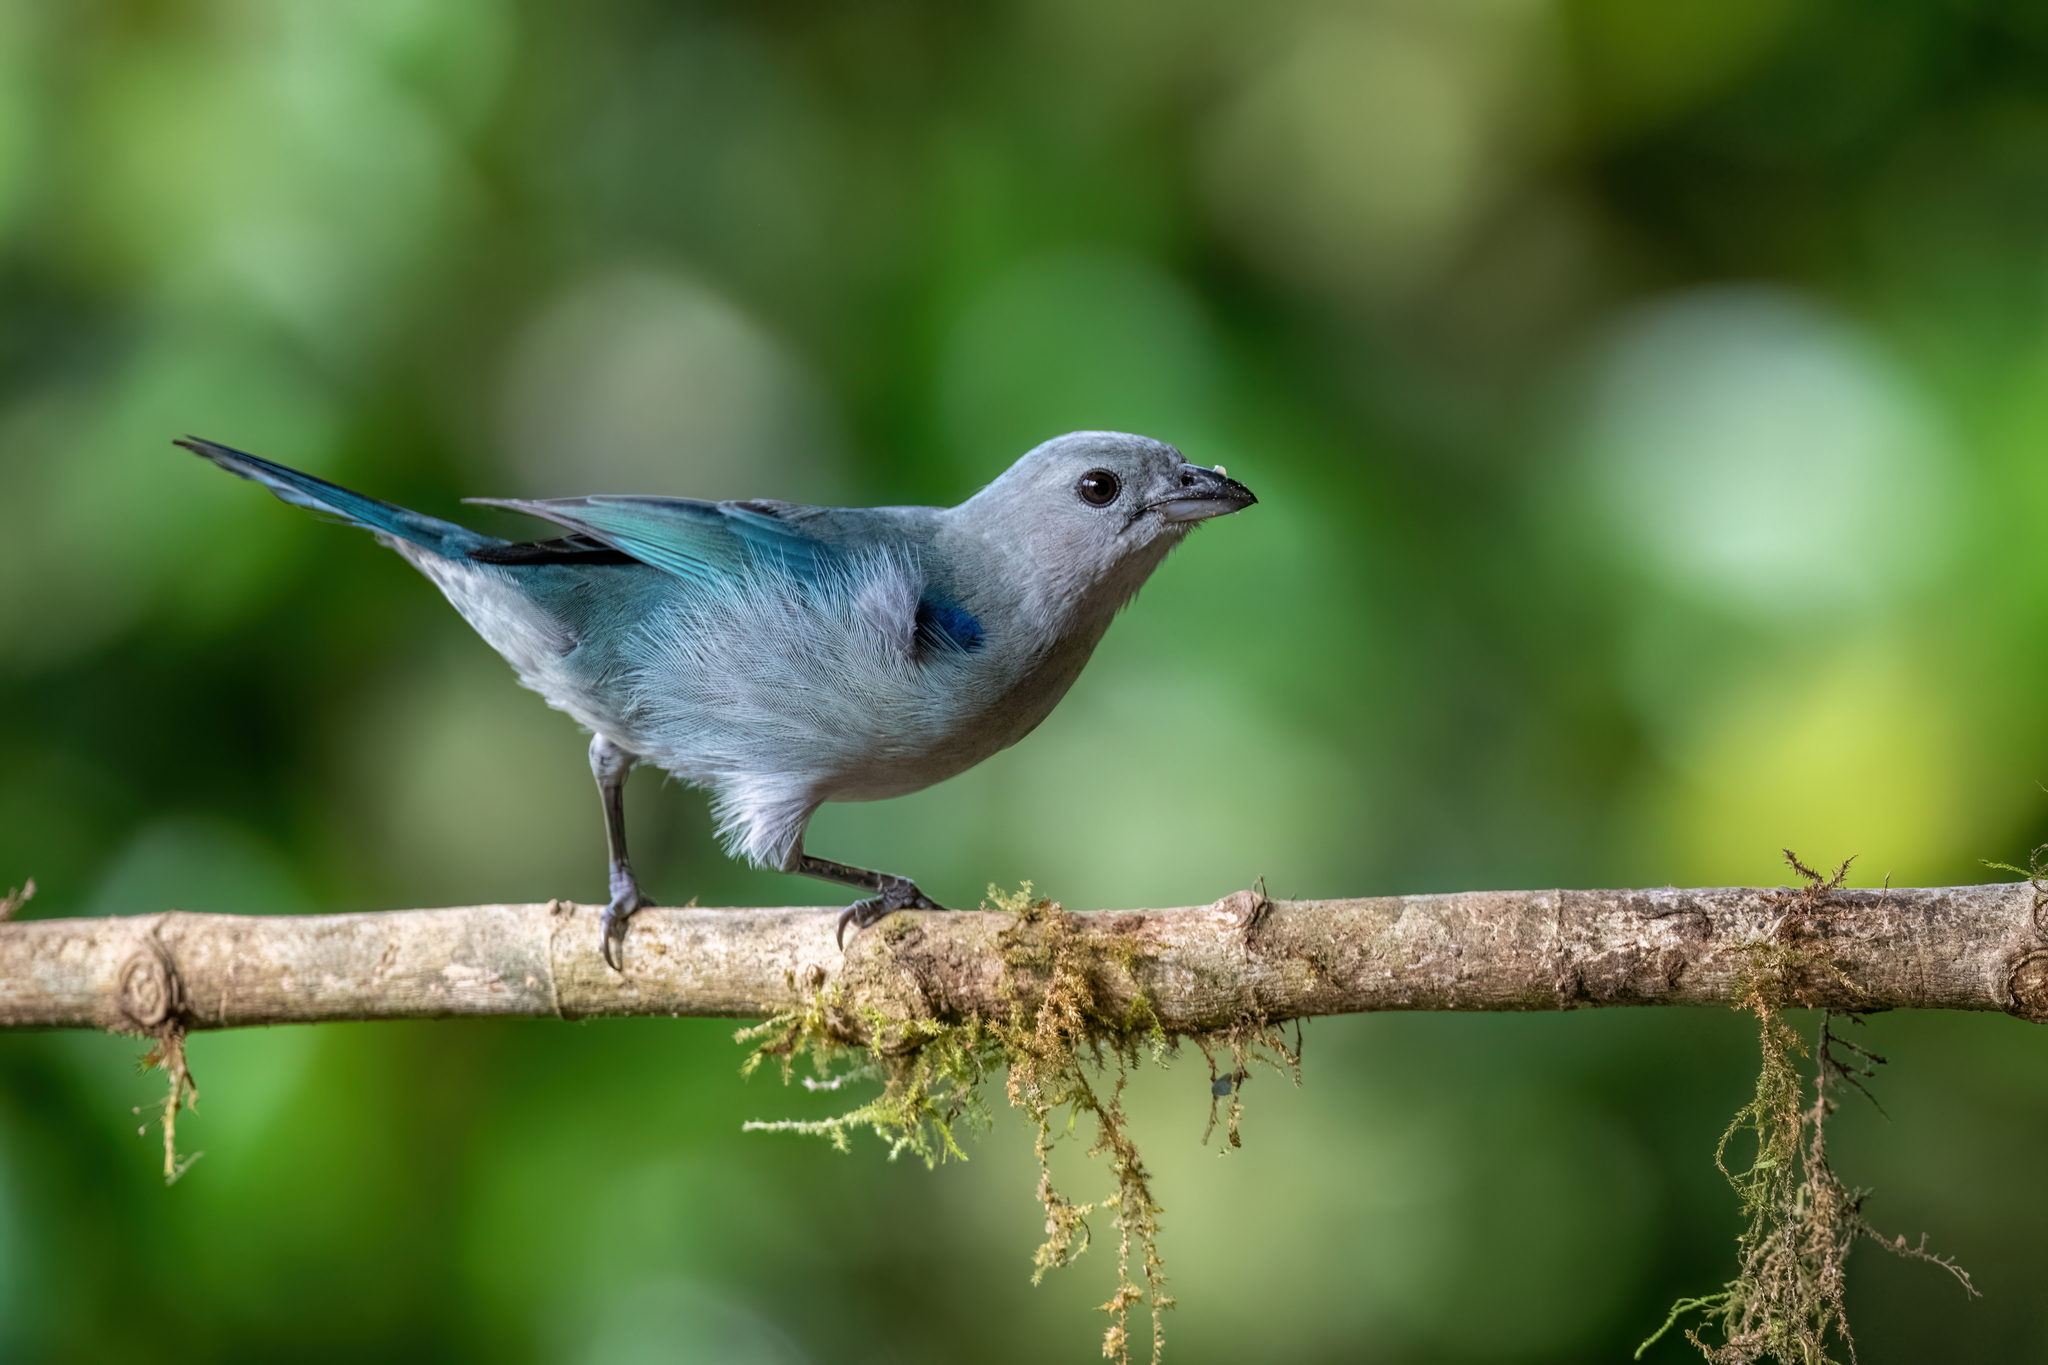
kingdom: Animalia
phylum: Chordata
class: Aves
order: Passeriformes
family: Thraupidae
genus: Thraupis
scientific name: Thraupis episcopus
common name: Blue-grey tanager
